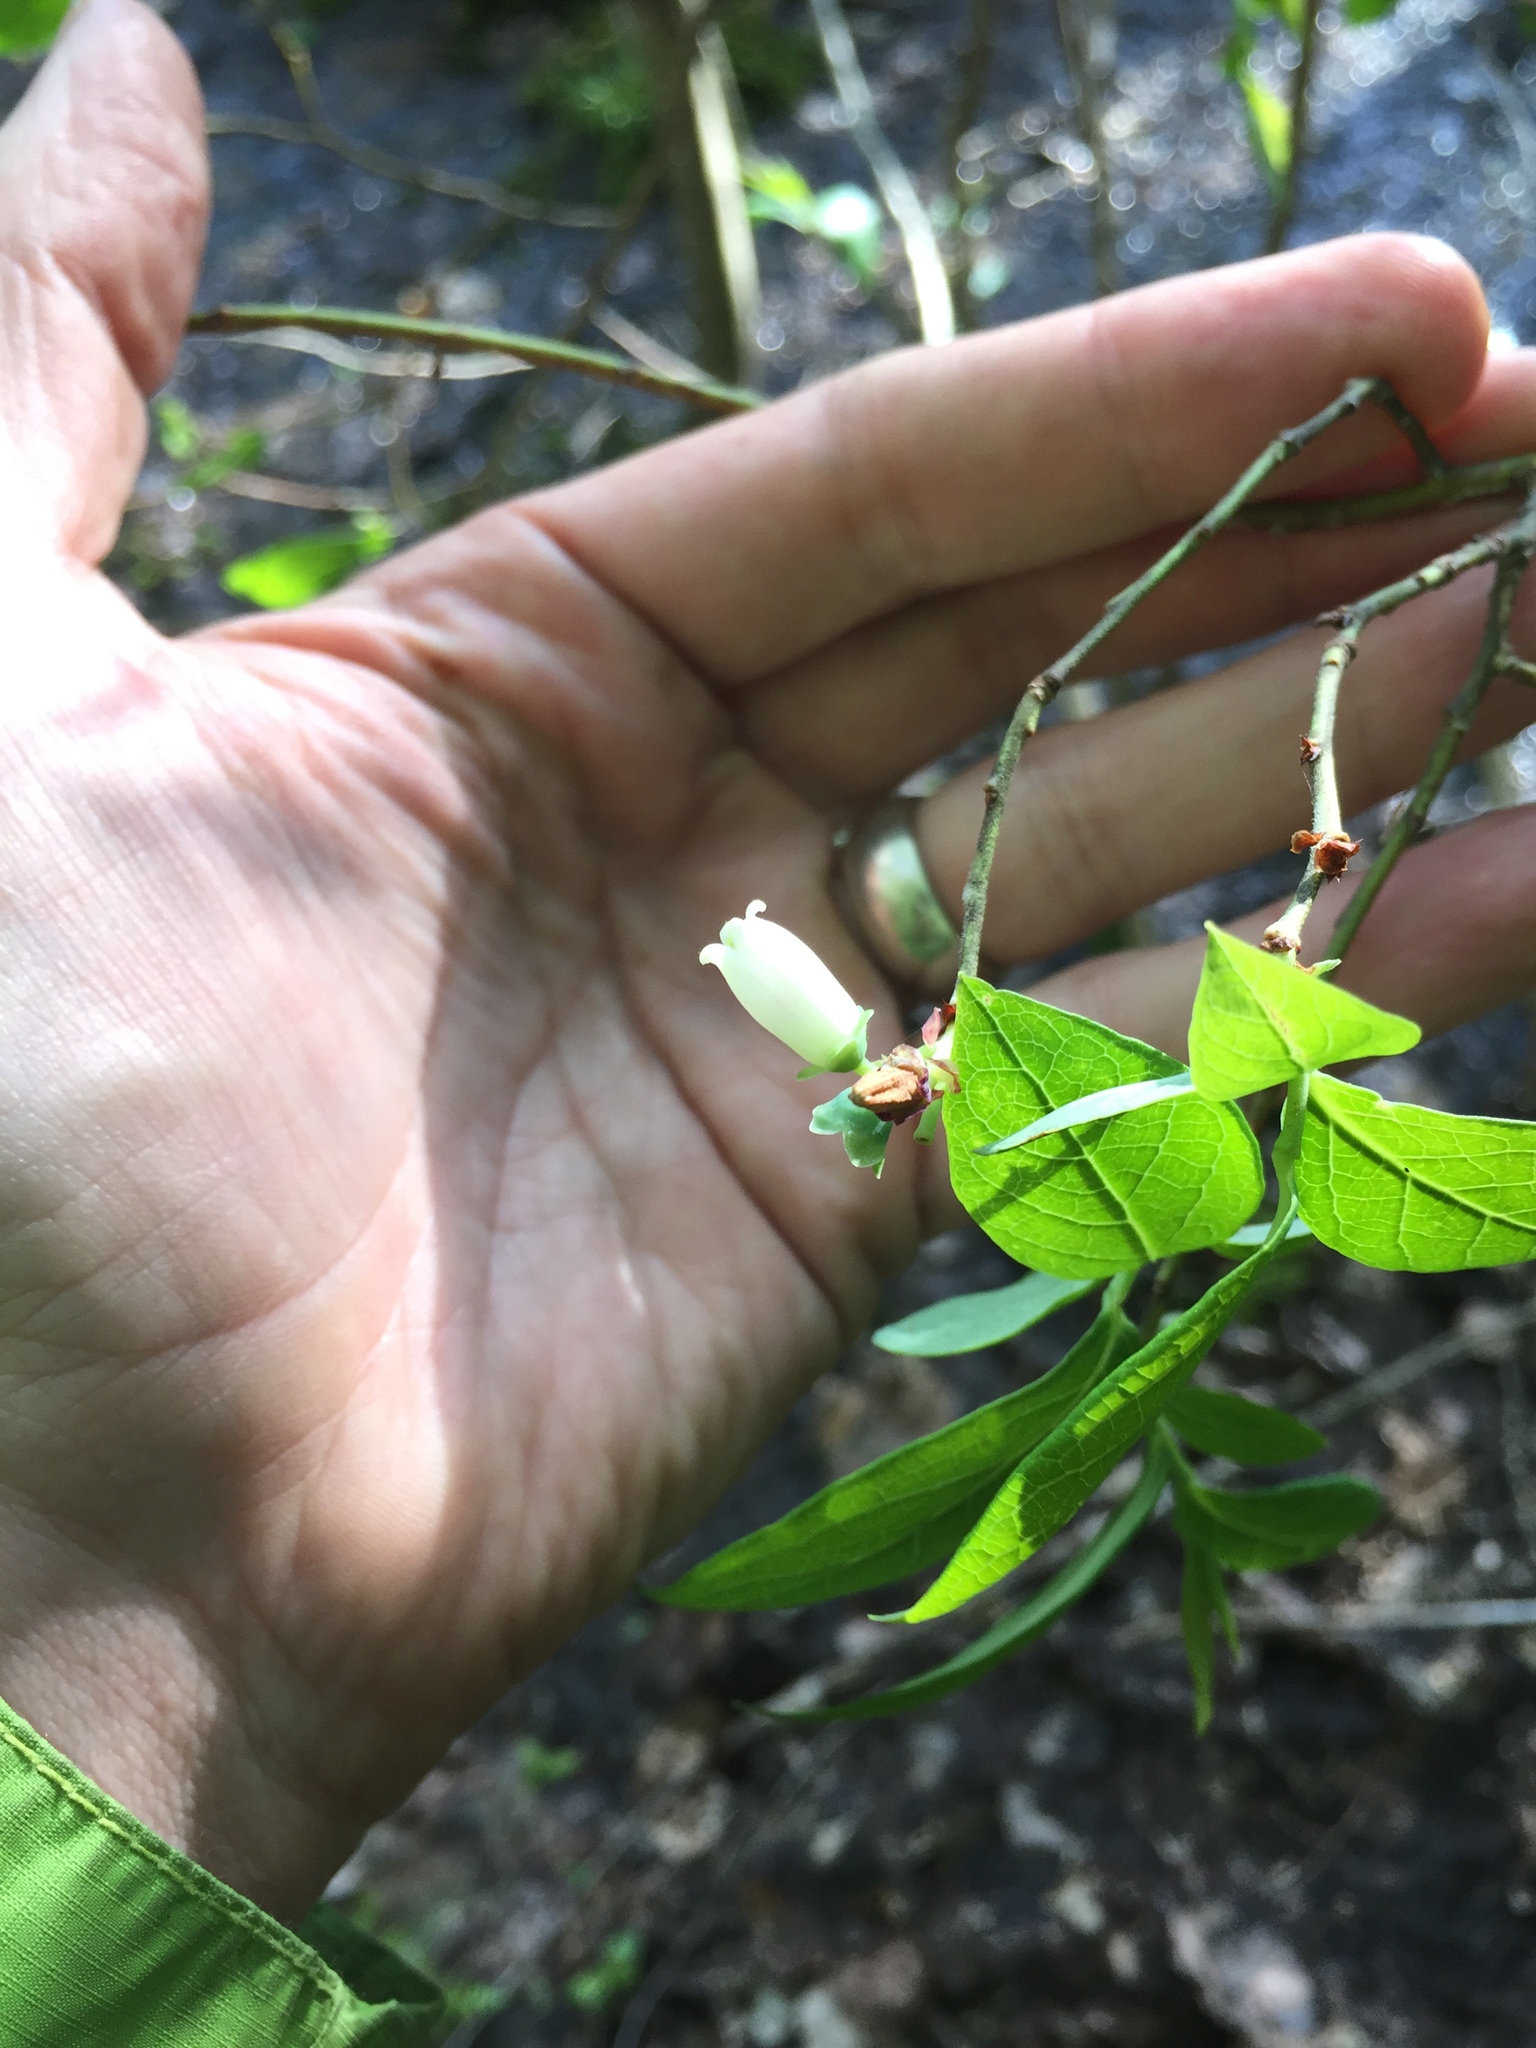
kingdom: Plantae
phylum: Tracheophyta
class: Magnoliopsida
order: Ericales
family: Ericaceae
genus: Vaccinium
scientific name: Vaccinium corymbosum
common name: Blueberry
